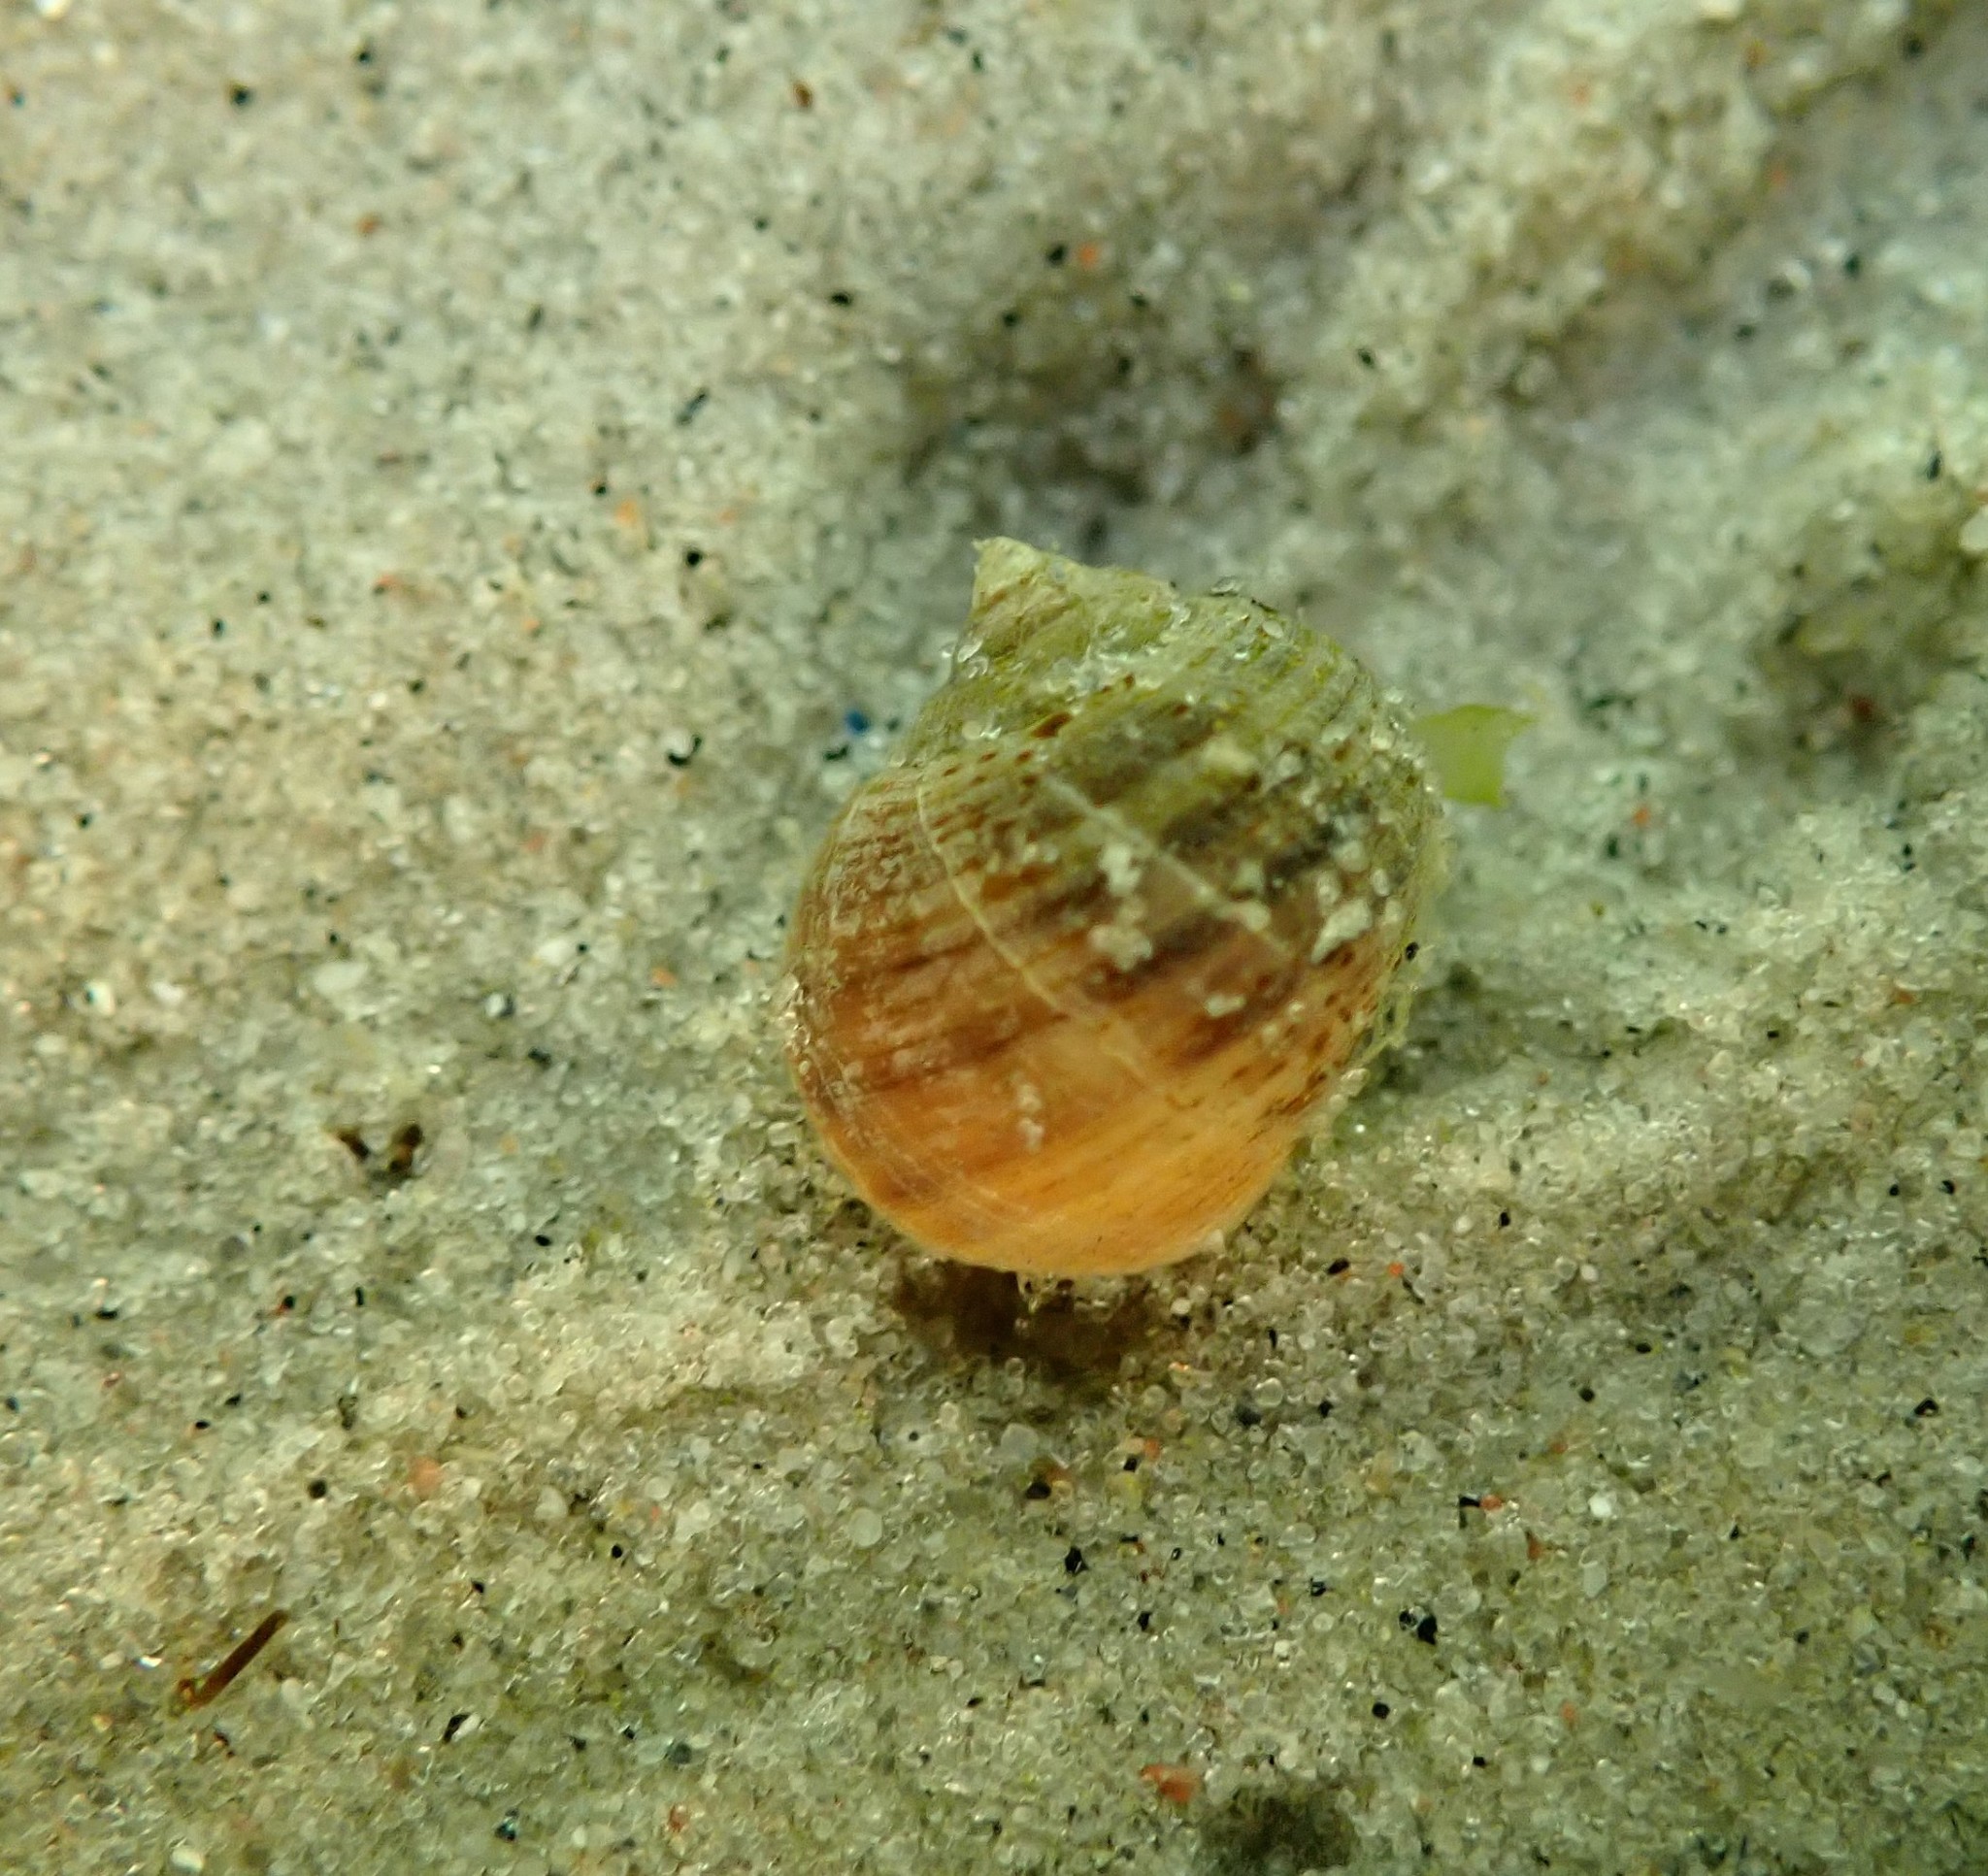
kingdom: Animalia
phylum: Mollusca
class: Gastropoda
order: Littorinimorpha
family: Littorinidae
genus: Littorina
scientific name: Littorina littorea
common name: Common periwinkle
